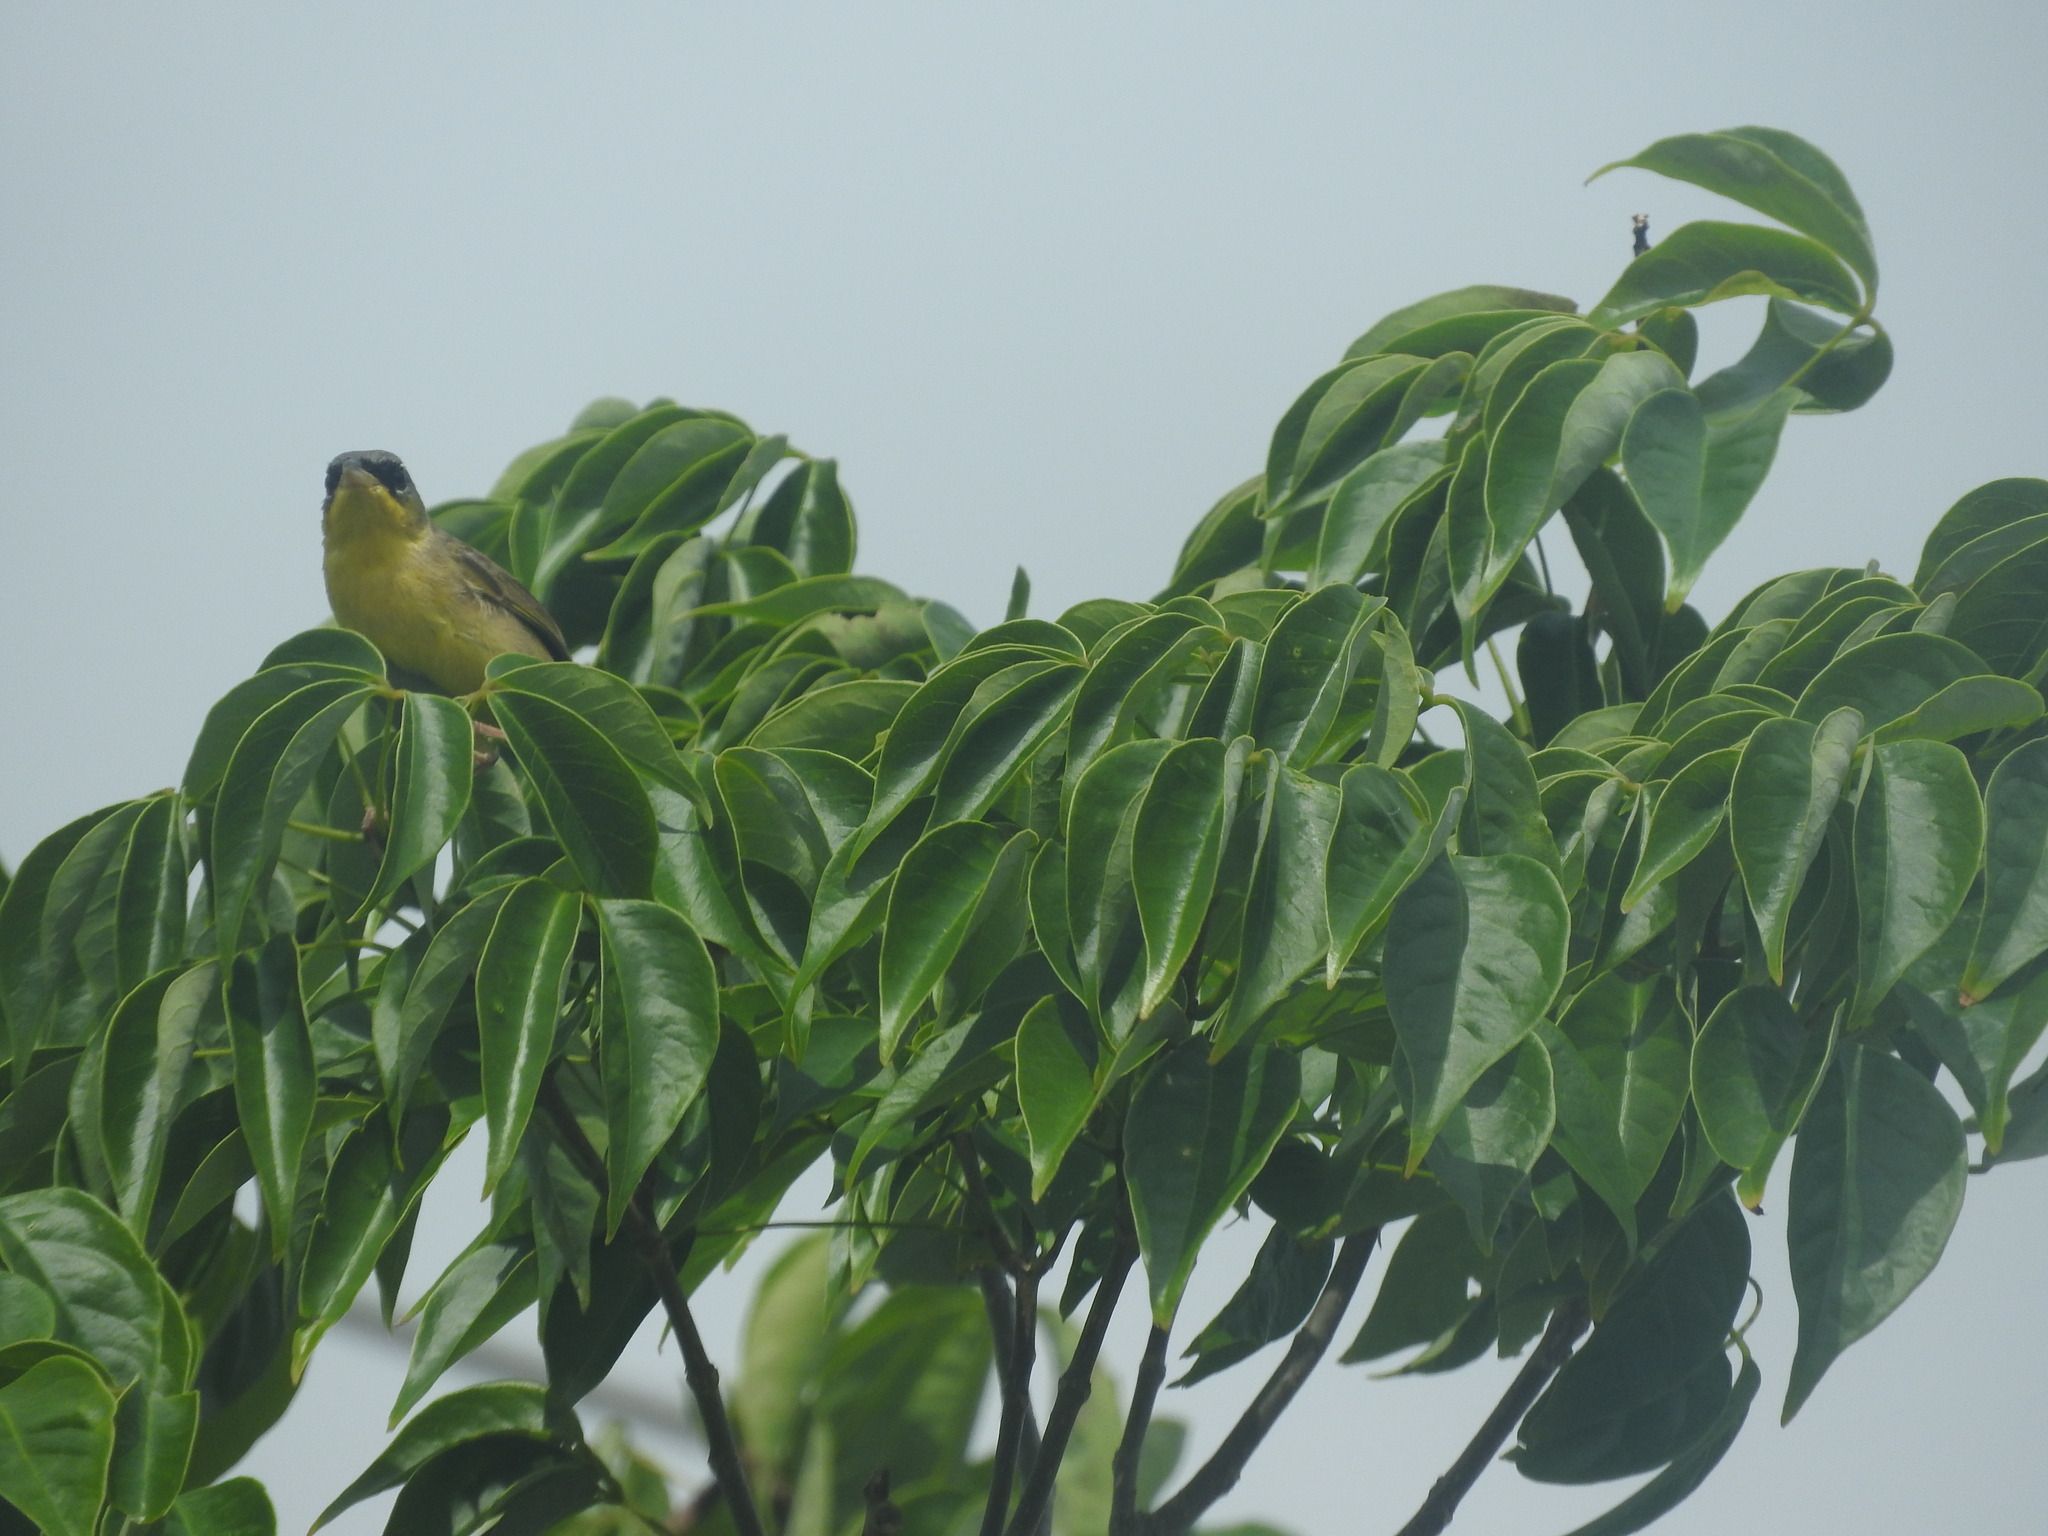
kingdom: Animalia
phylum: Chordata
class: Aves
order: Passeriformes
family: Parulidae
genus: Geothlypis
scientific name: Geothlypis poliocephala
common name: Gray-crowned yellowthroat
